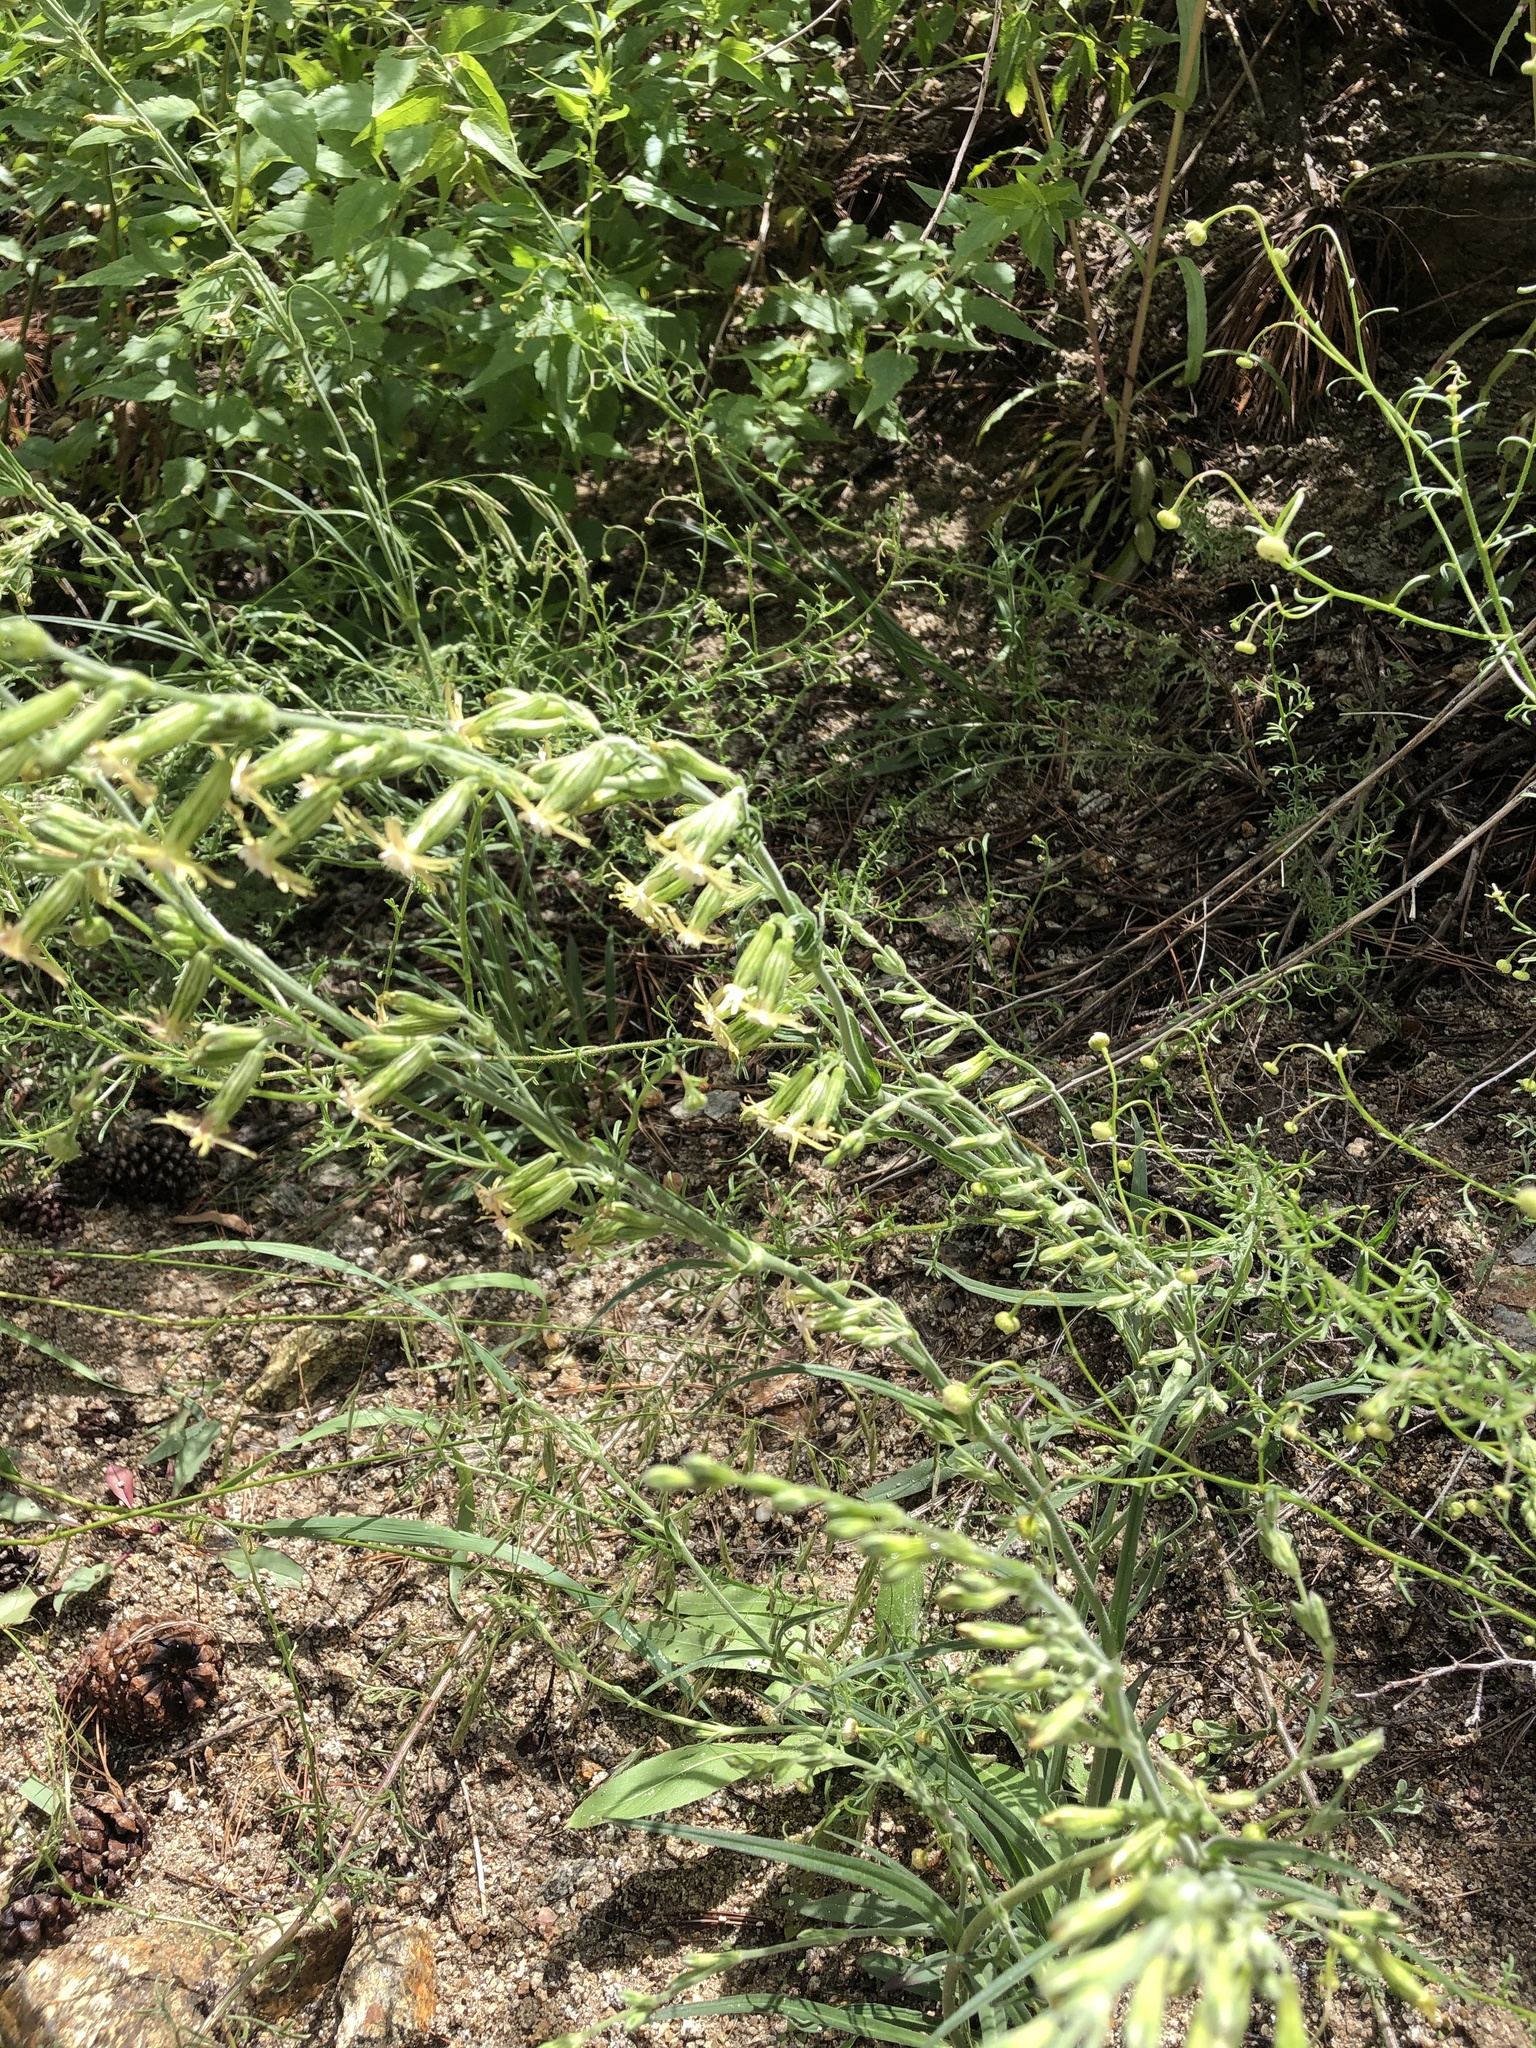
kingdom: Plantae
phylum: Tracheophyta
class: Magnoliopsida
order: Caryophyllales
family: Caryophyllaceae
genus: Silene
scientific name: Silene scouleri
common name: Scouler's campion
